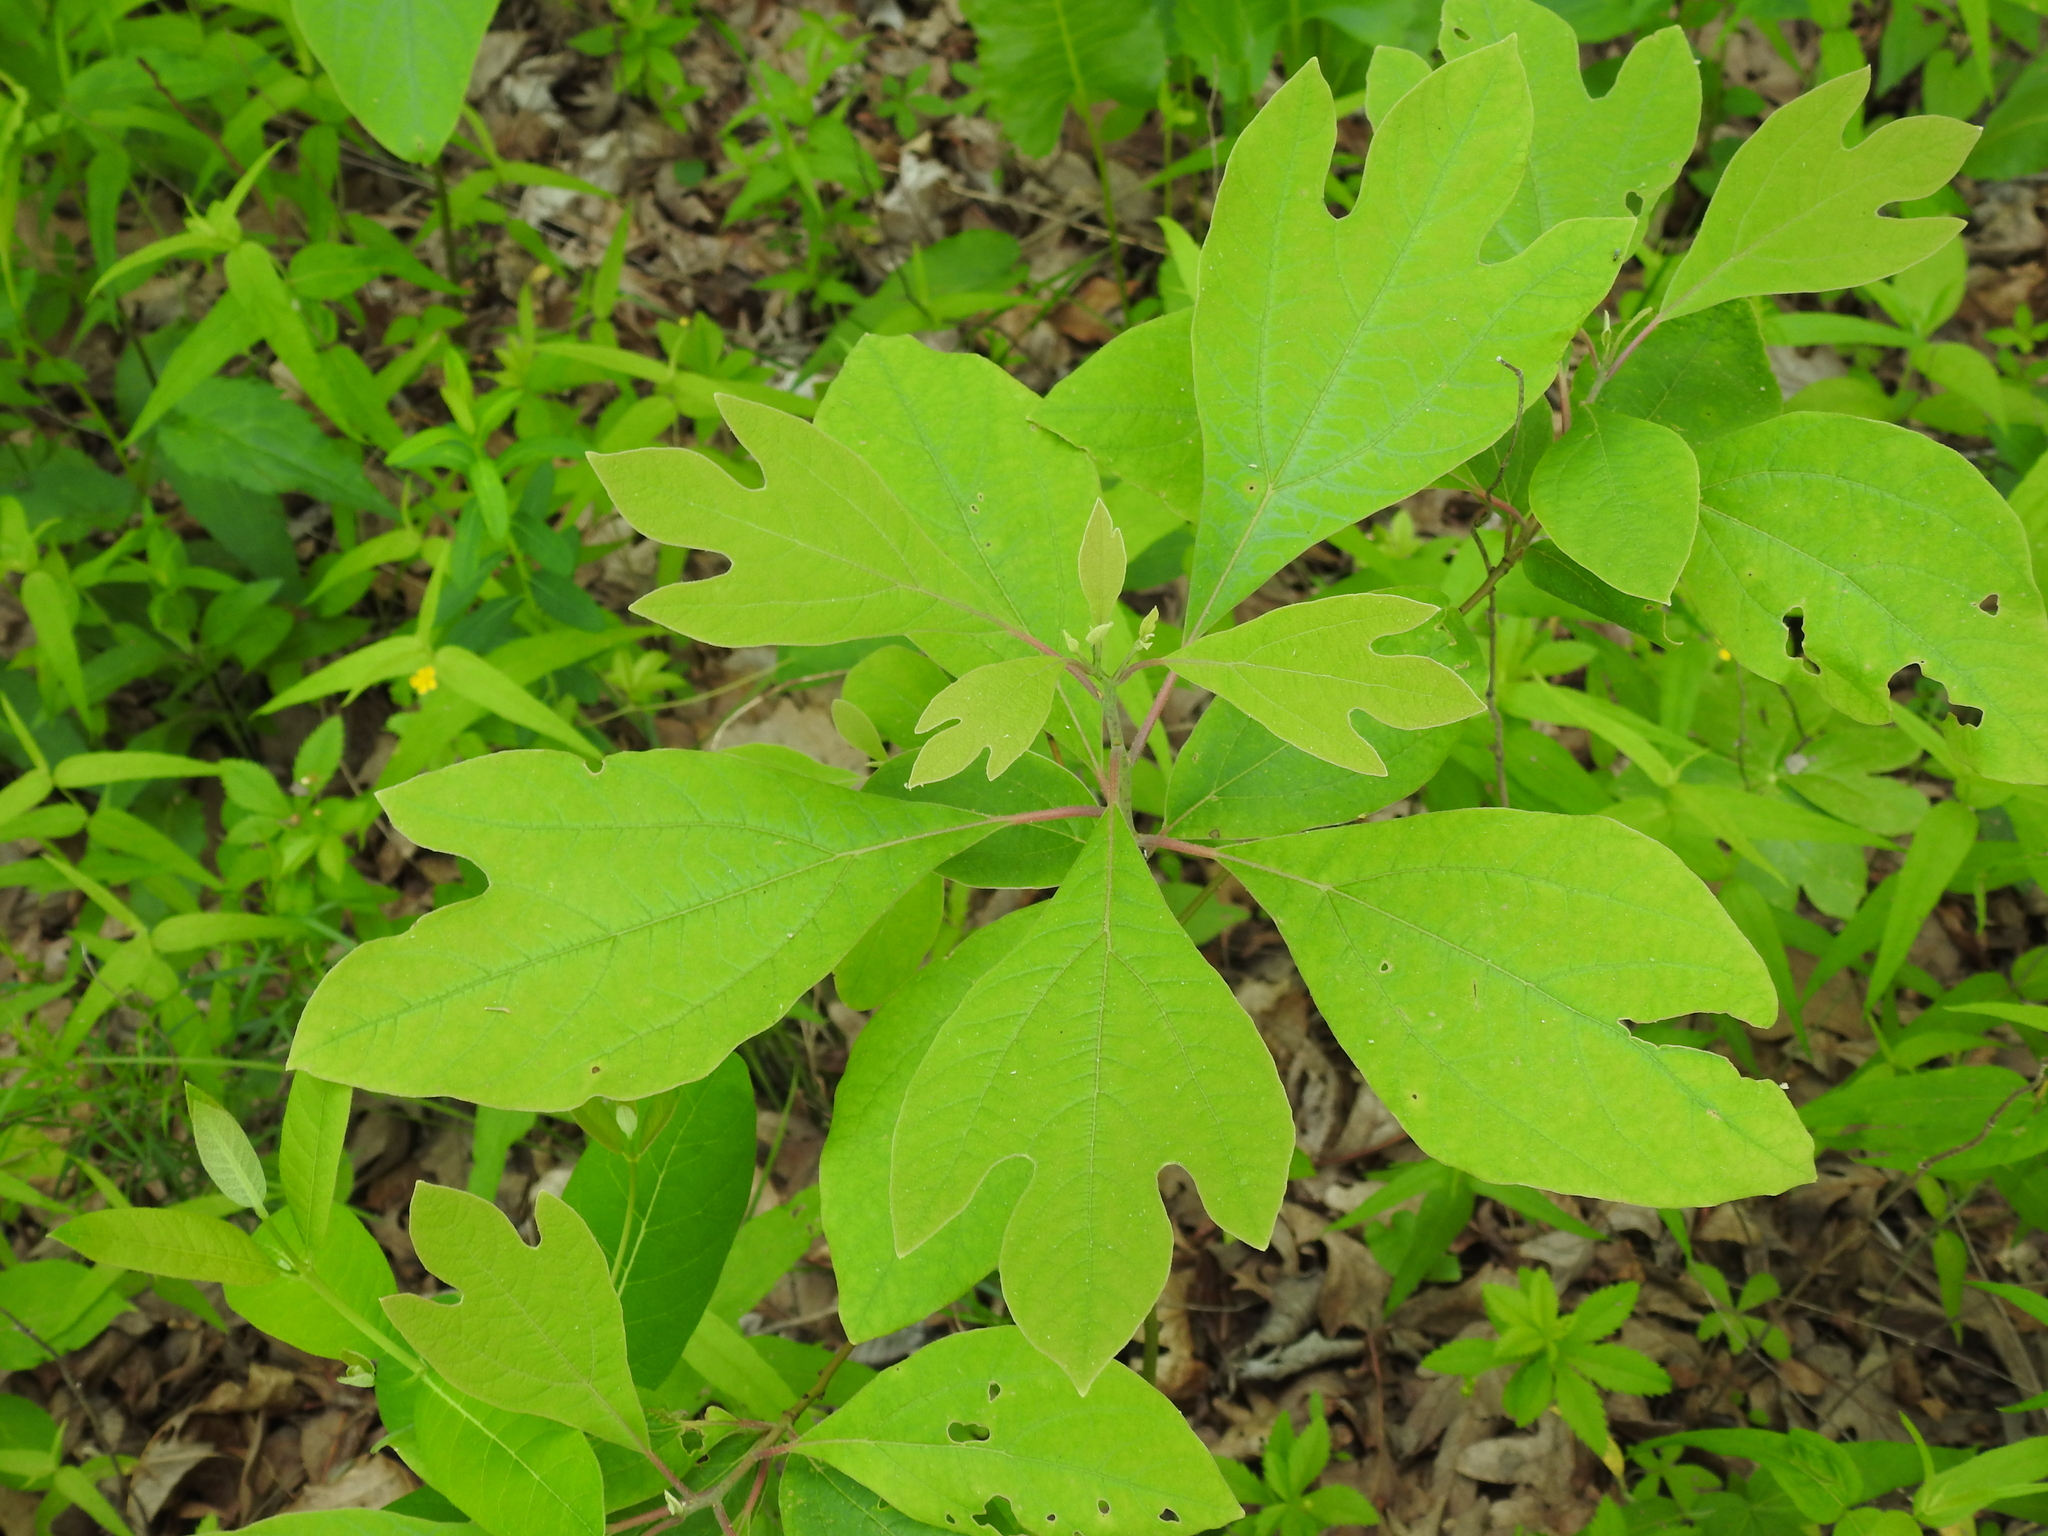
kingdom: Plantae
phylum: Tracheophyta
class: Magnoliopsida
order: Laurales
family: Lauraceae
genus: Sassafras
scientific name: Sassafras albidum
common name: Sassafras
